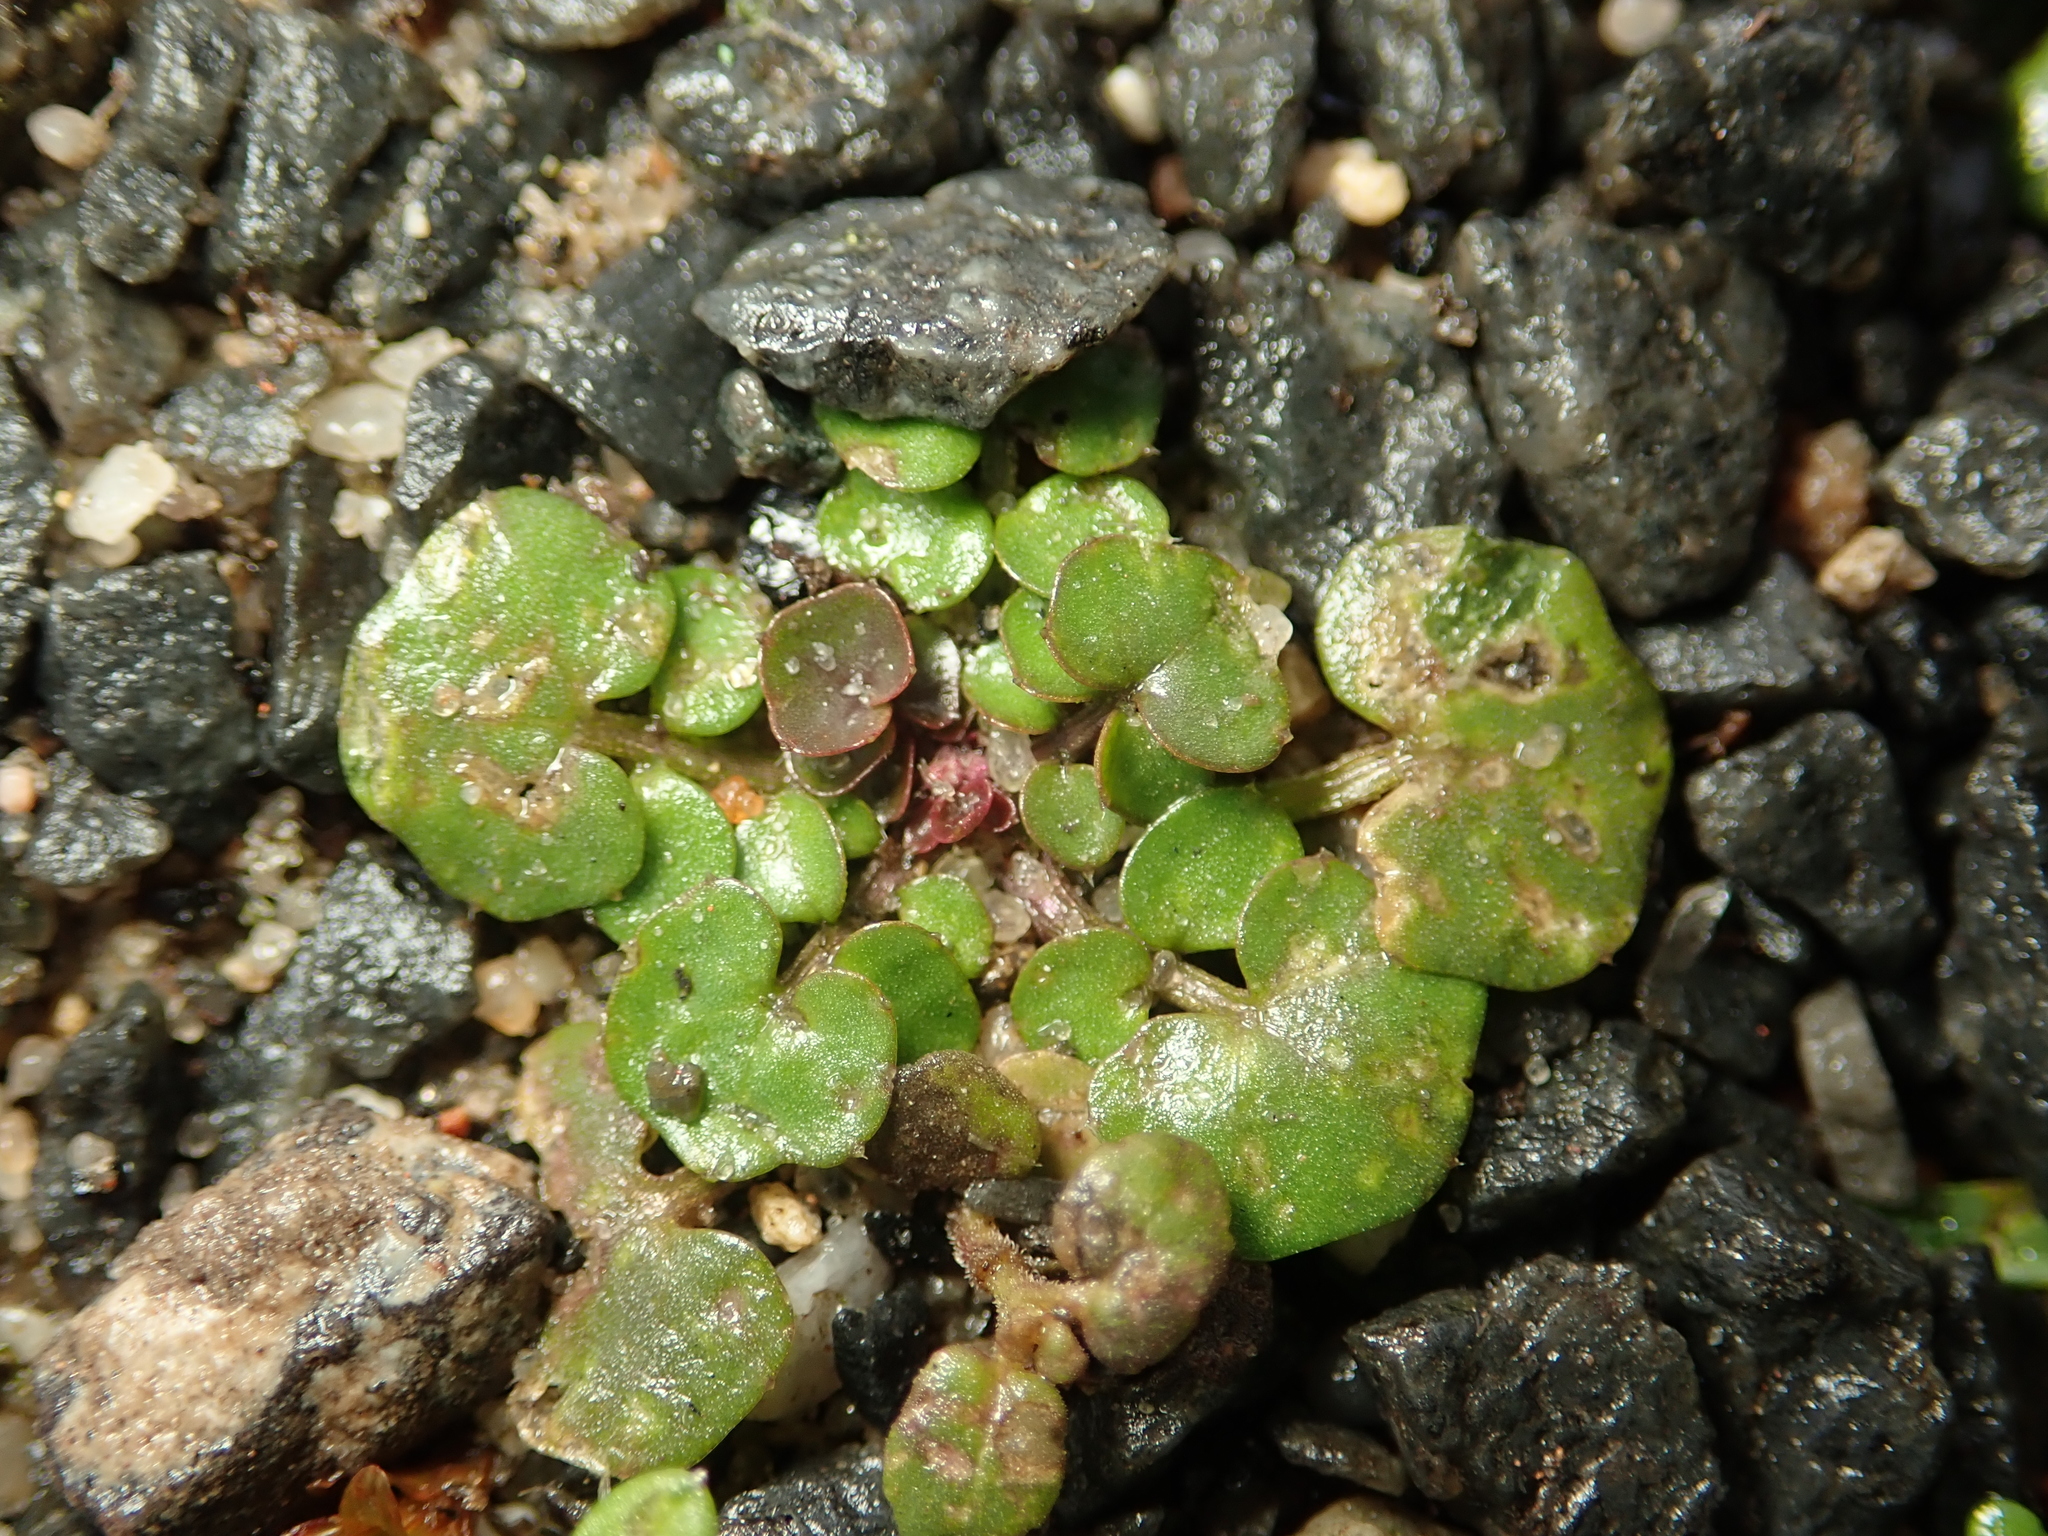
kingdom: Plantae
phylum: Tracheophyta
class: Magnoliopsida
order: Brassicales
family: Brassicaceae
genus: Cardamine
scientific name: Cardamine hirsuta
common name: Hairy bittercress
